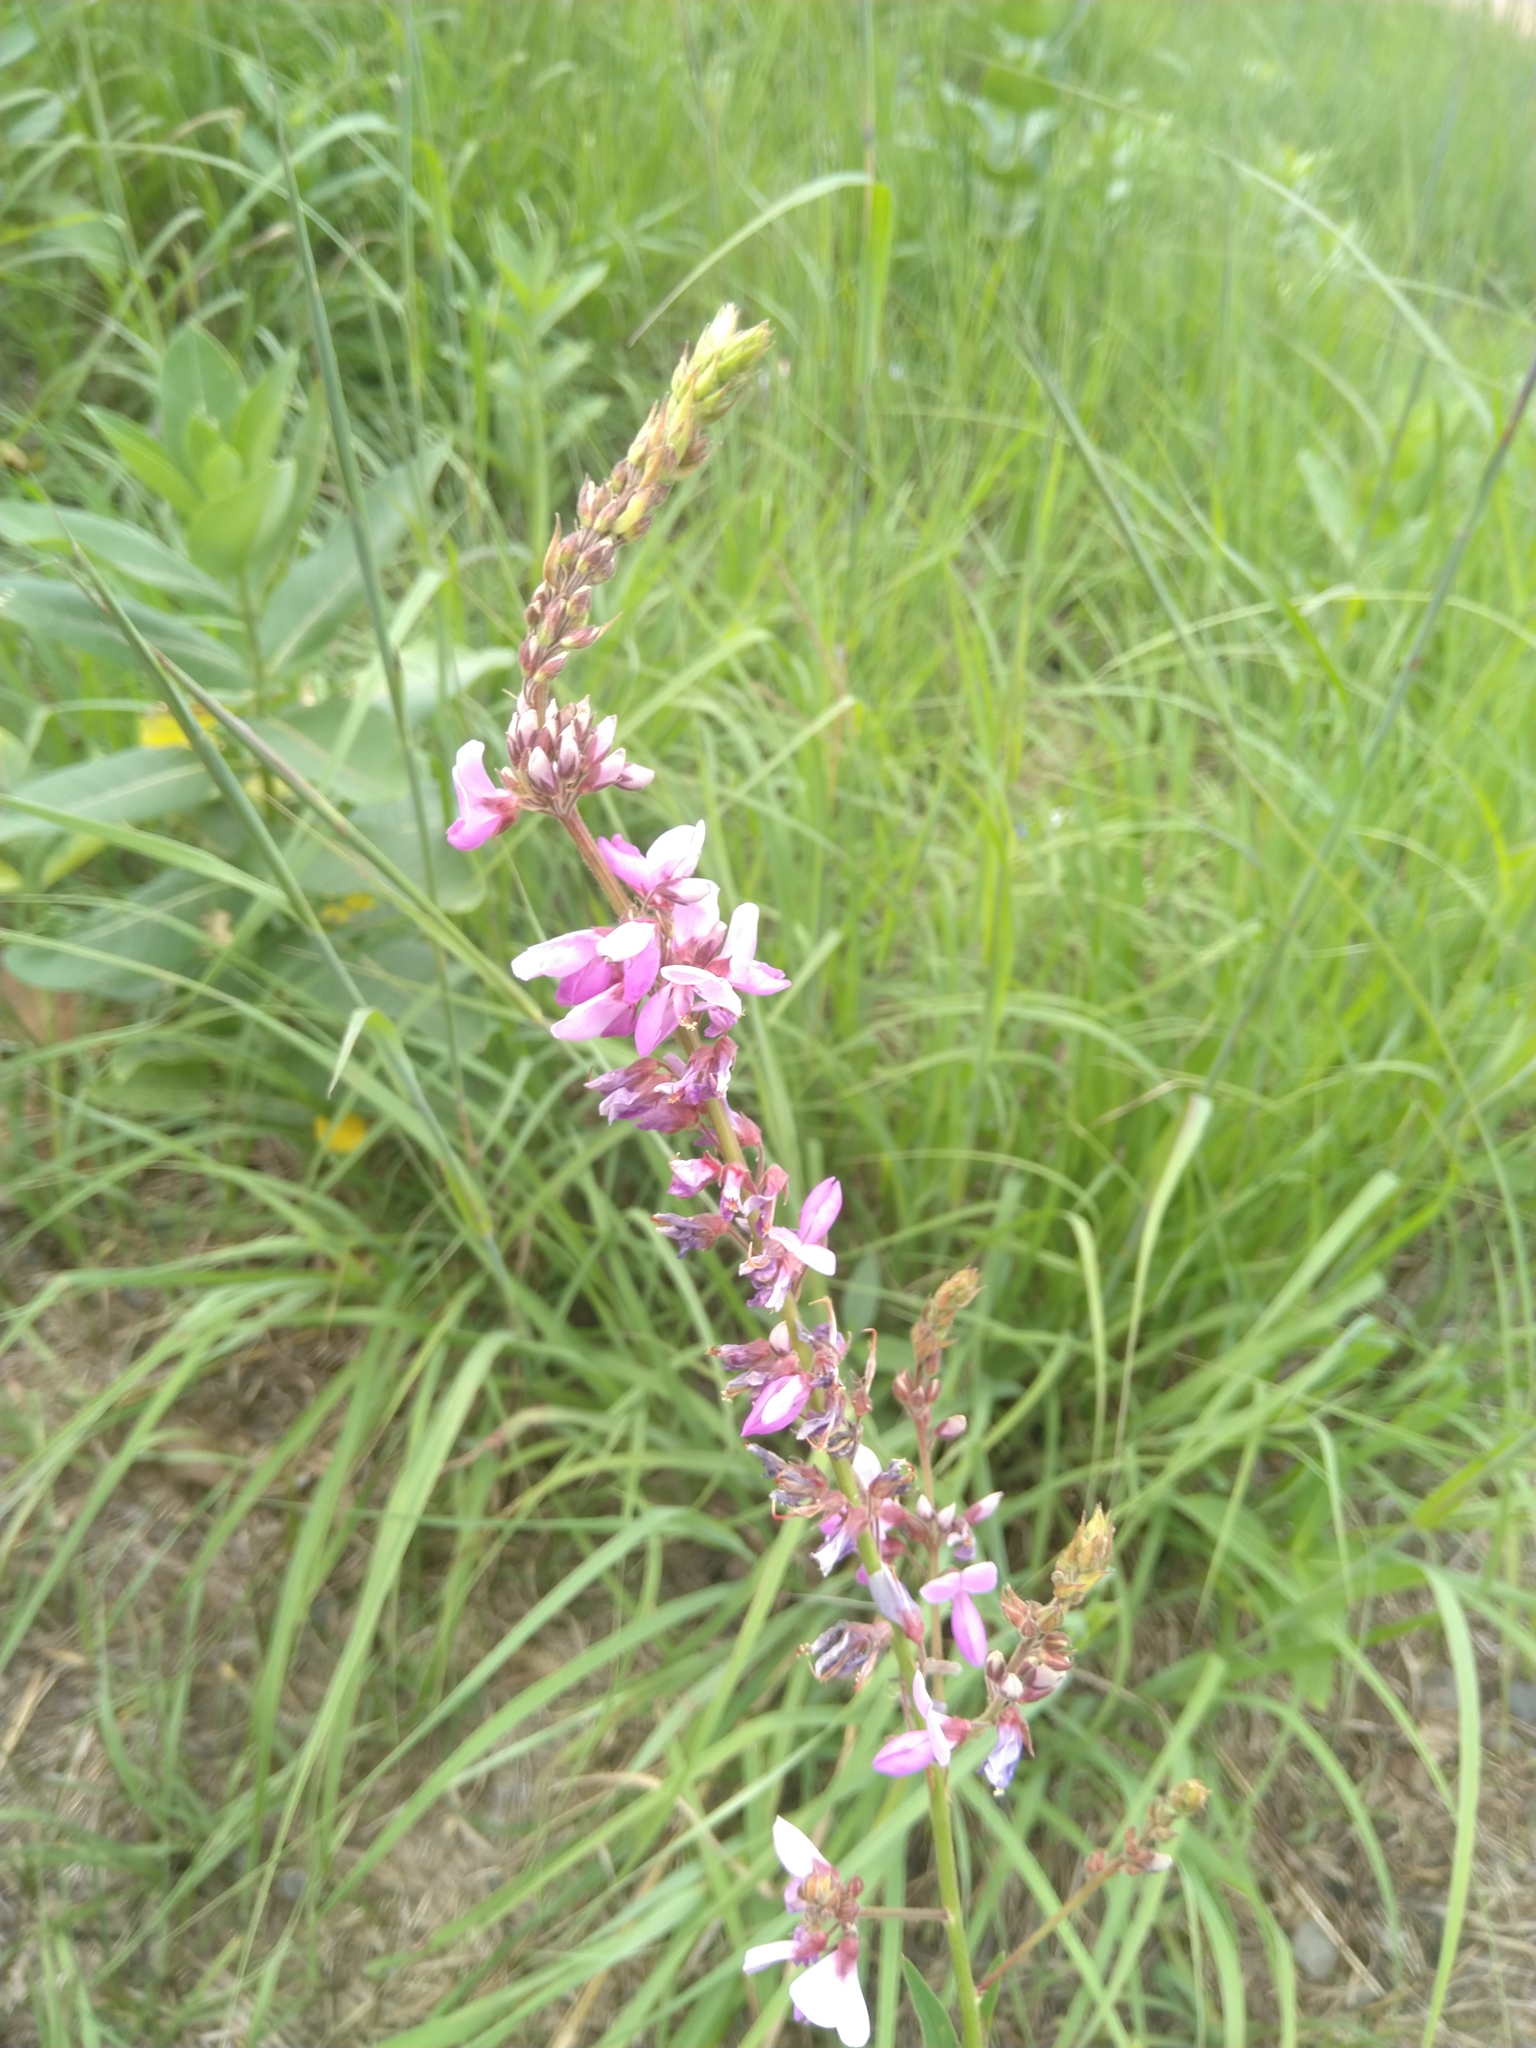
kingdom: Plantae
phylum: Tracheophyta
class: Magnoliopsida
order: Fabales
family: Fabaceae
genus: Desmodium
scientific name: Desmodium canadense
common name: Canada tick-trefoil
